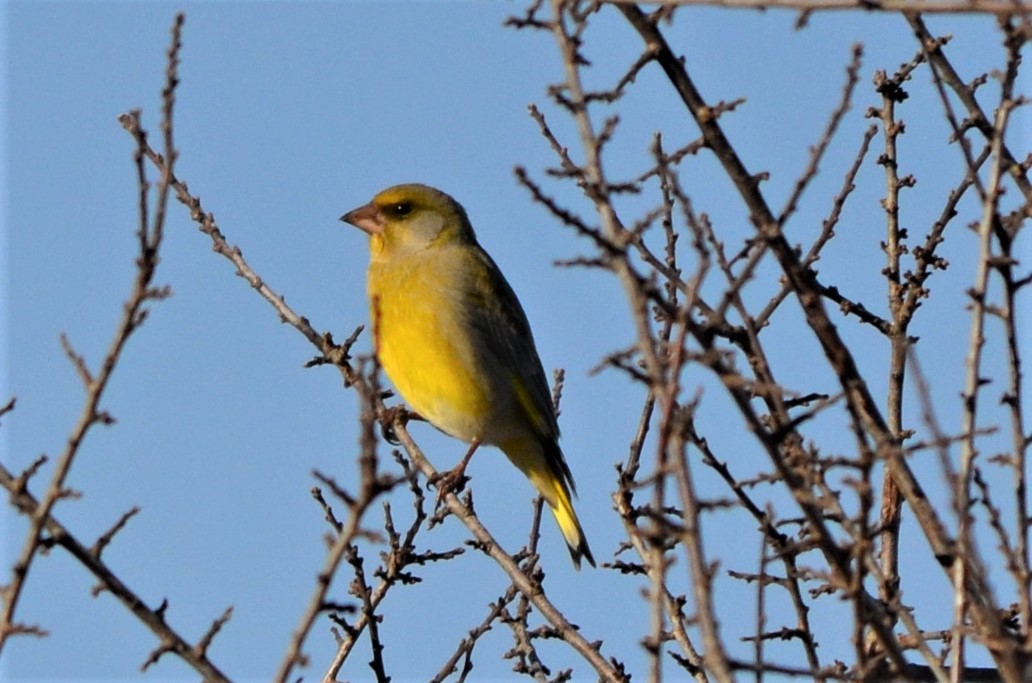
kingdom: Plantae
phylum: Tracheophyta
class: Liliopsida
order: Poales
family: Poaceae
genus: Chloris
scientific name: Chloris chloris
